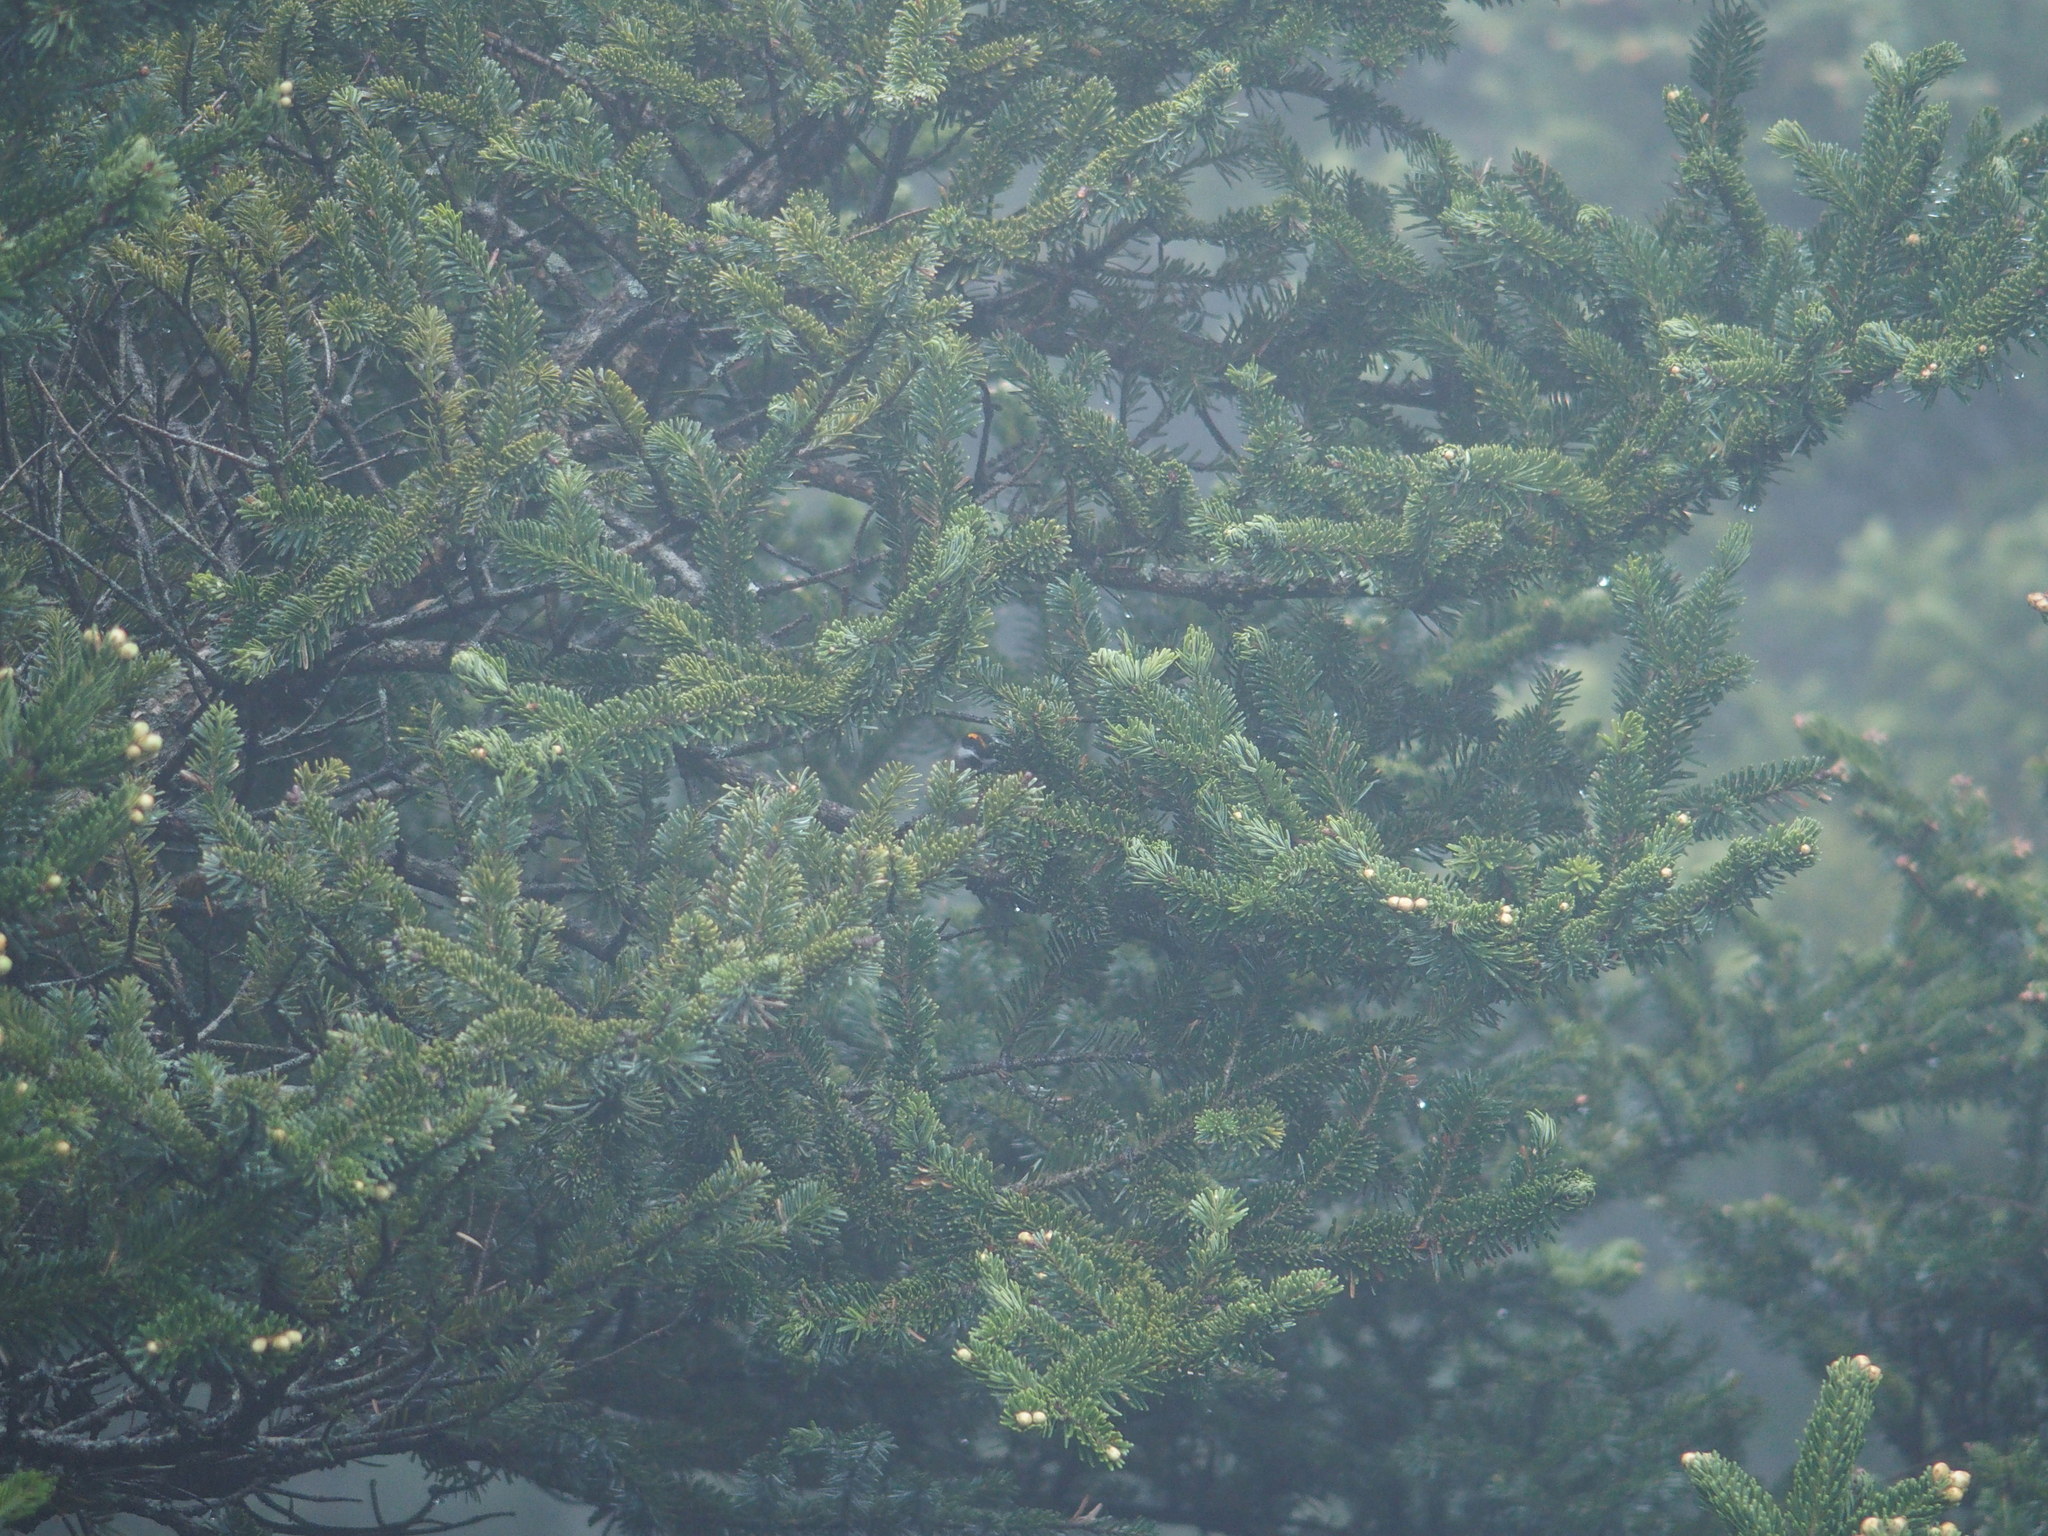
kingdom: Animalia
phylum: Chordata
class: Aves
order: Passeriformes
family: Regulidae
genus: Regulus
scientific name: Regulus goodfellowi
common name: Flamecrest
